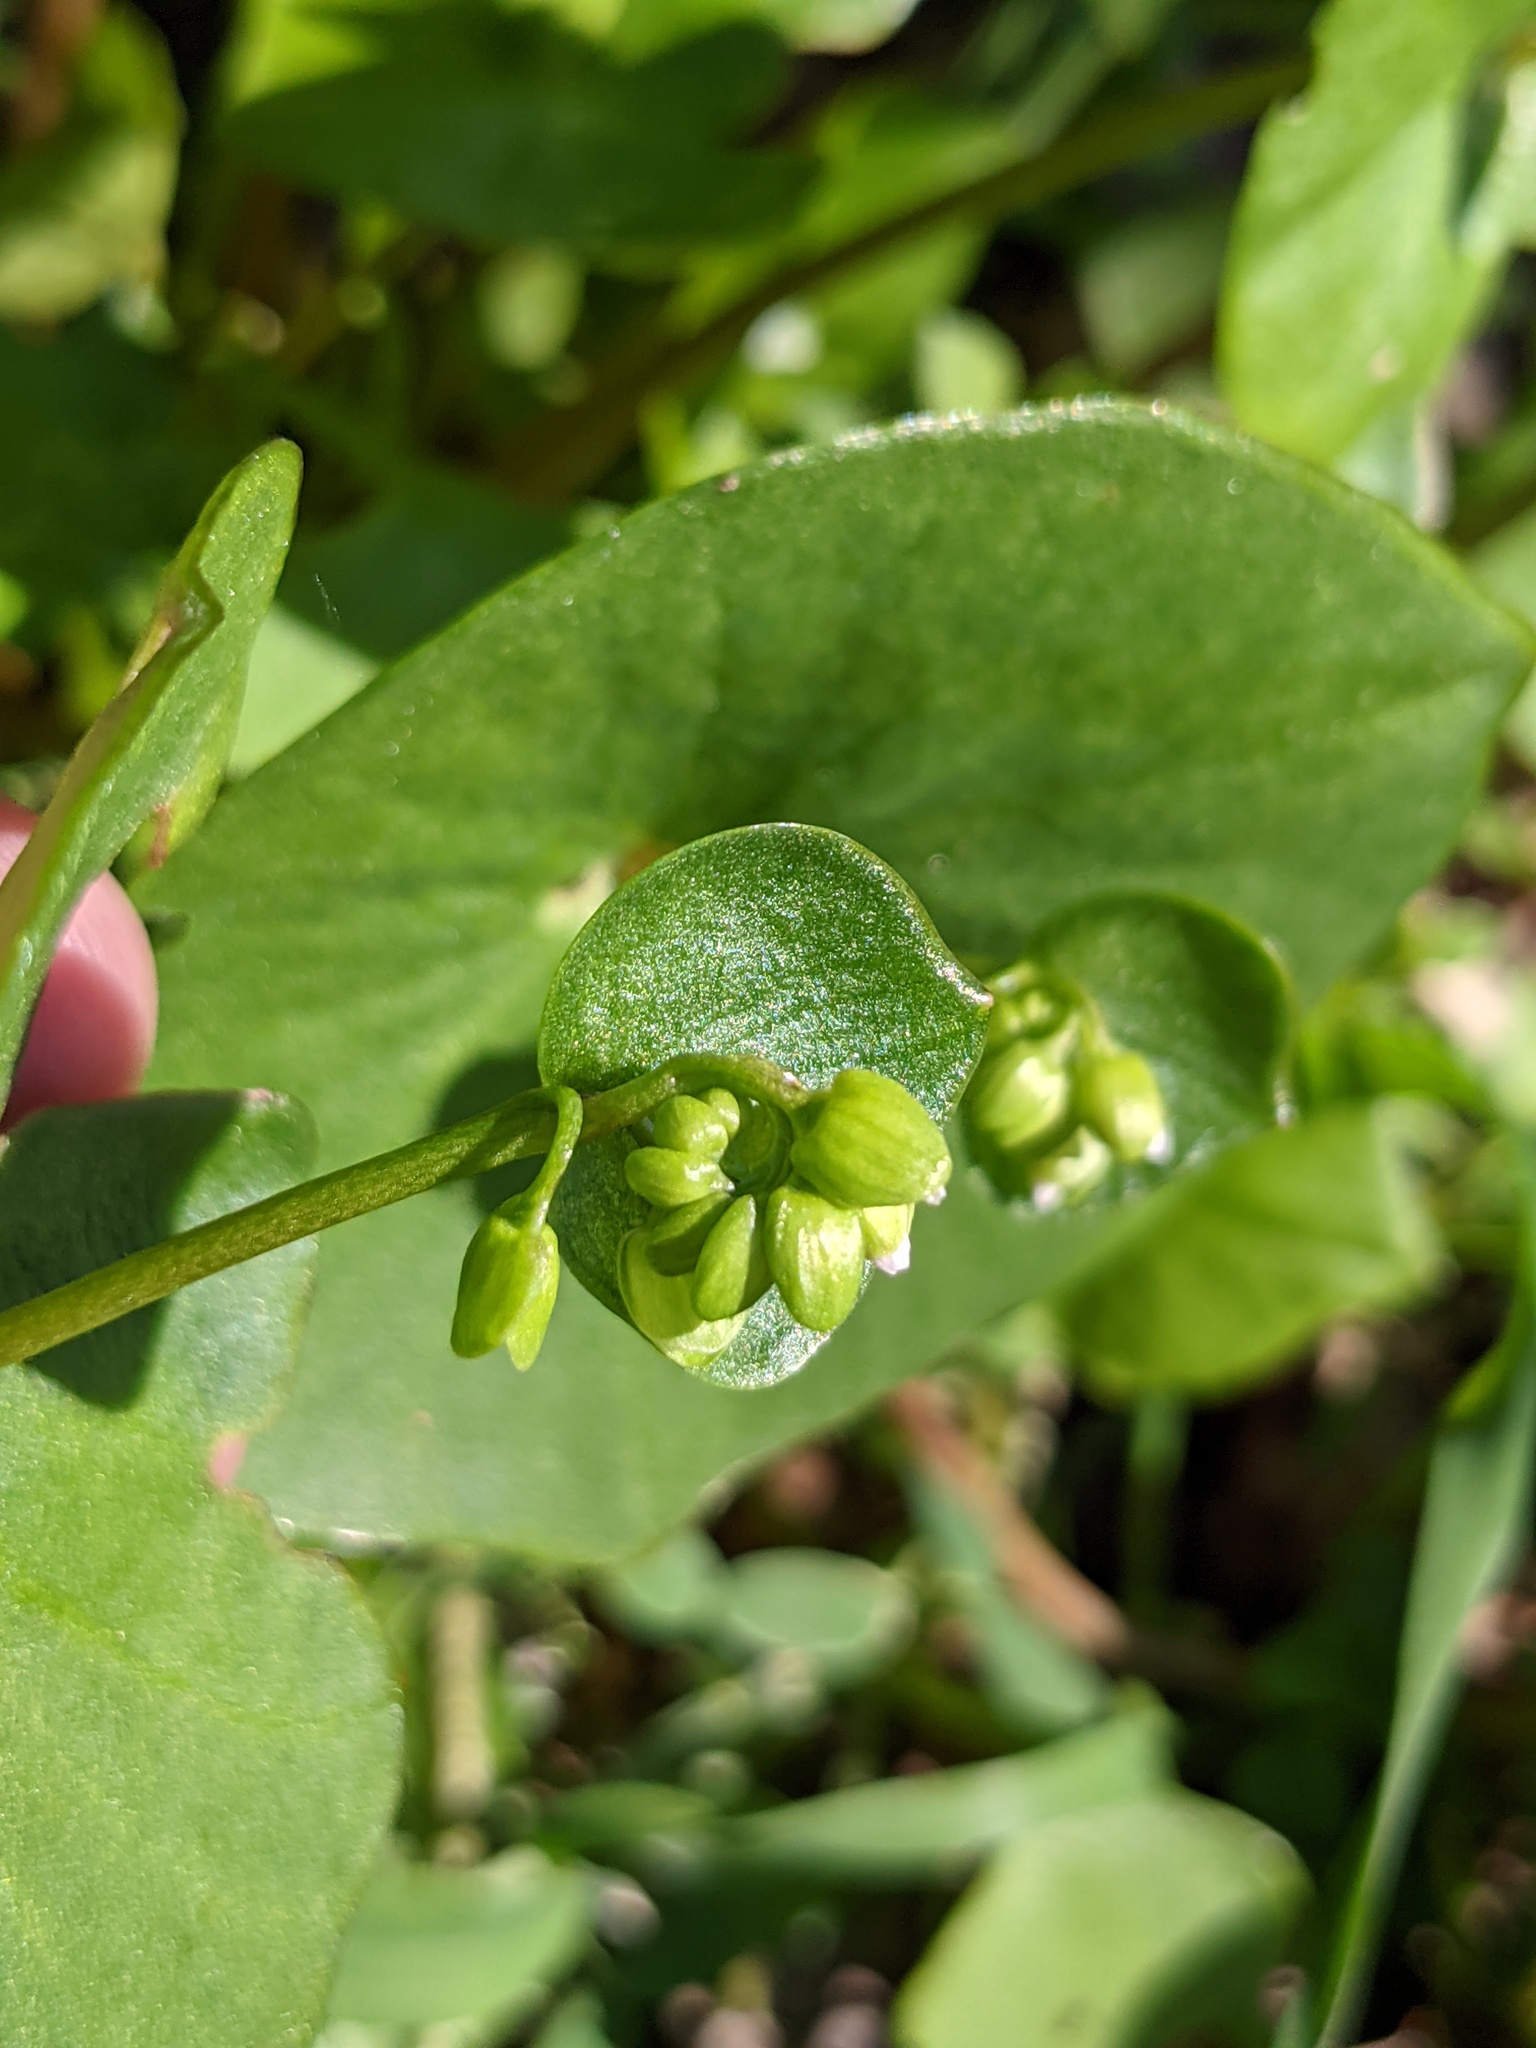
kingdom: Plantae
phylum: Tracheophyta
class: Magnoliopsida
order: Caryophyllales
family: Montiaceae
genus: Claytonia
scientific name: Claytonia perfoliata
